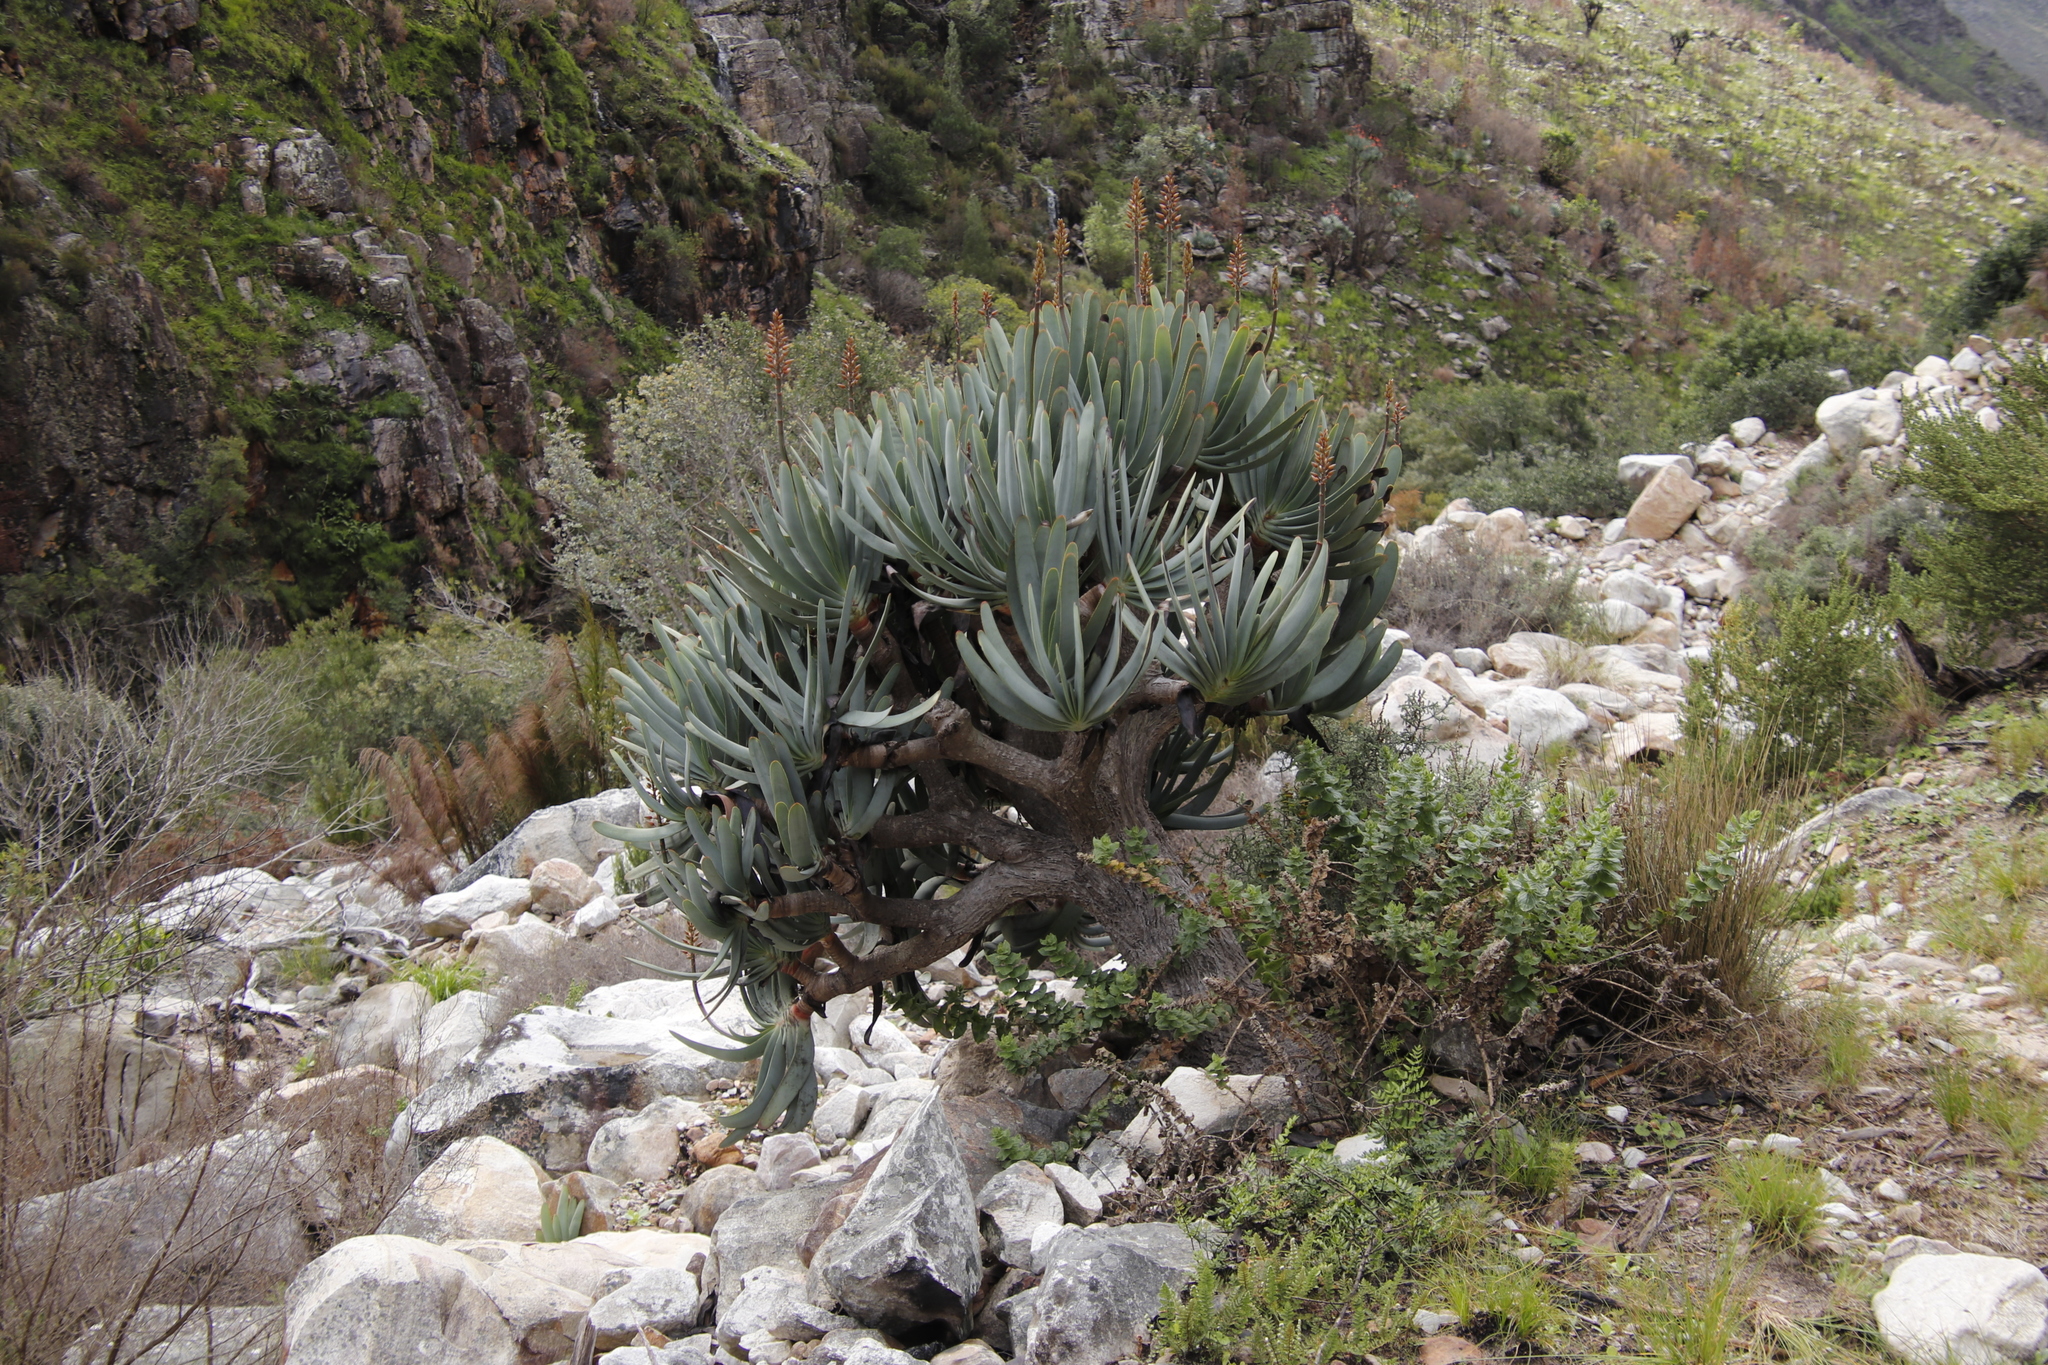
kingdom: Plantae
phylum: Tracheophyta
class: Liliopsida
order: Asparagales
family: Asphodelaceae
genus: Kumara
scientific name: Kumara plicatilis
